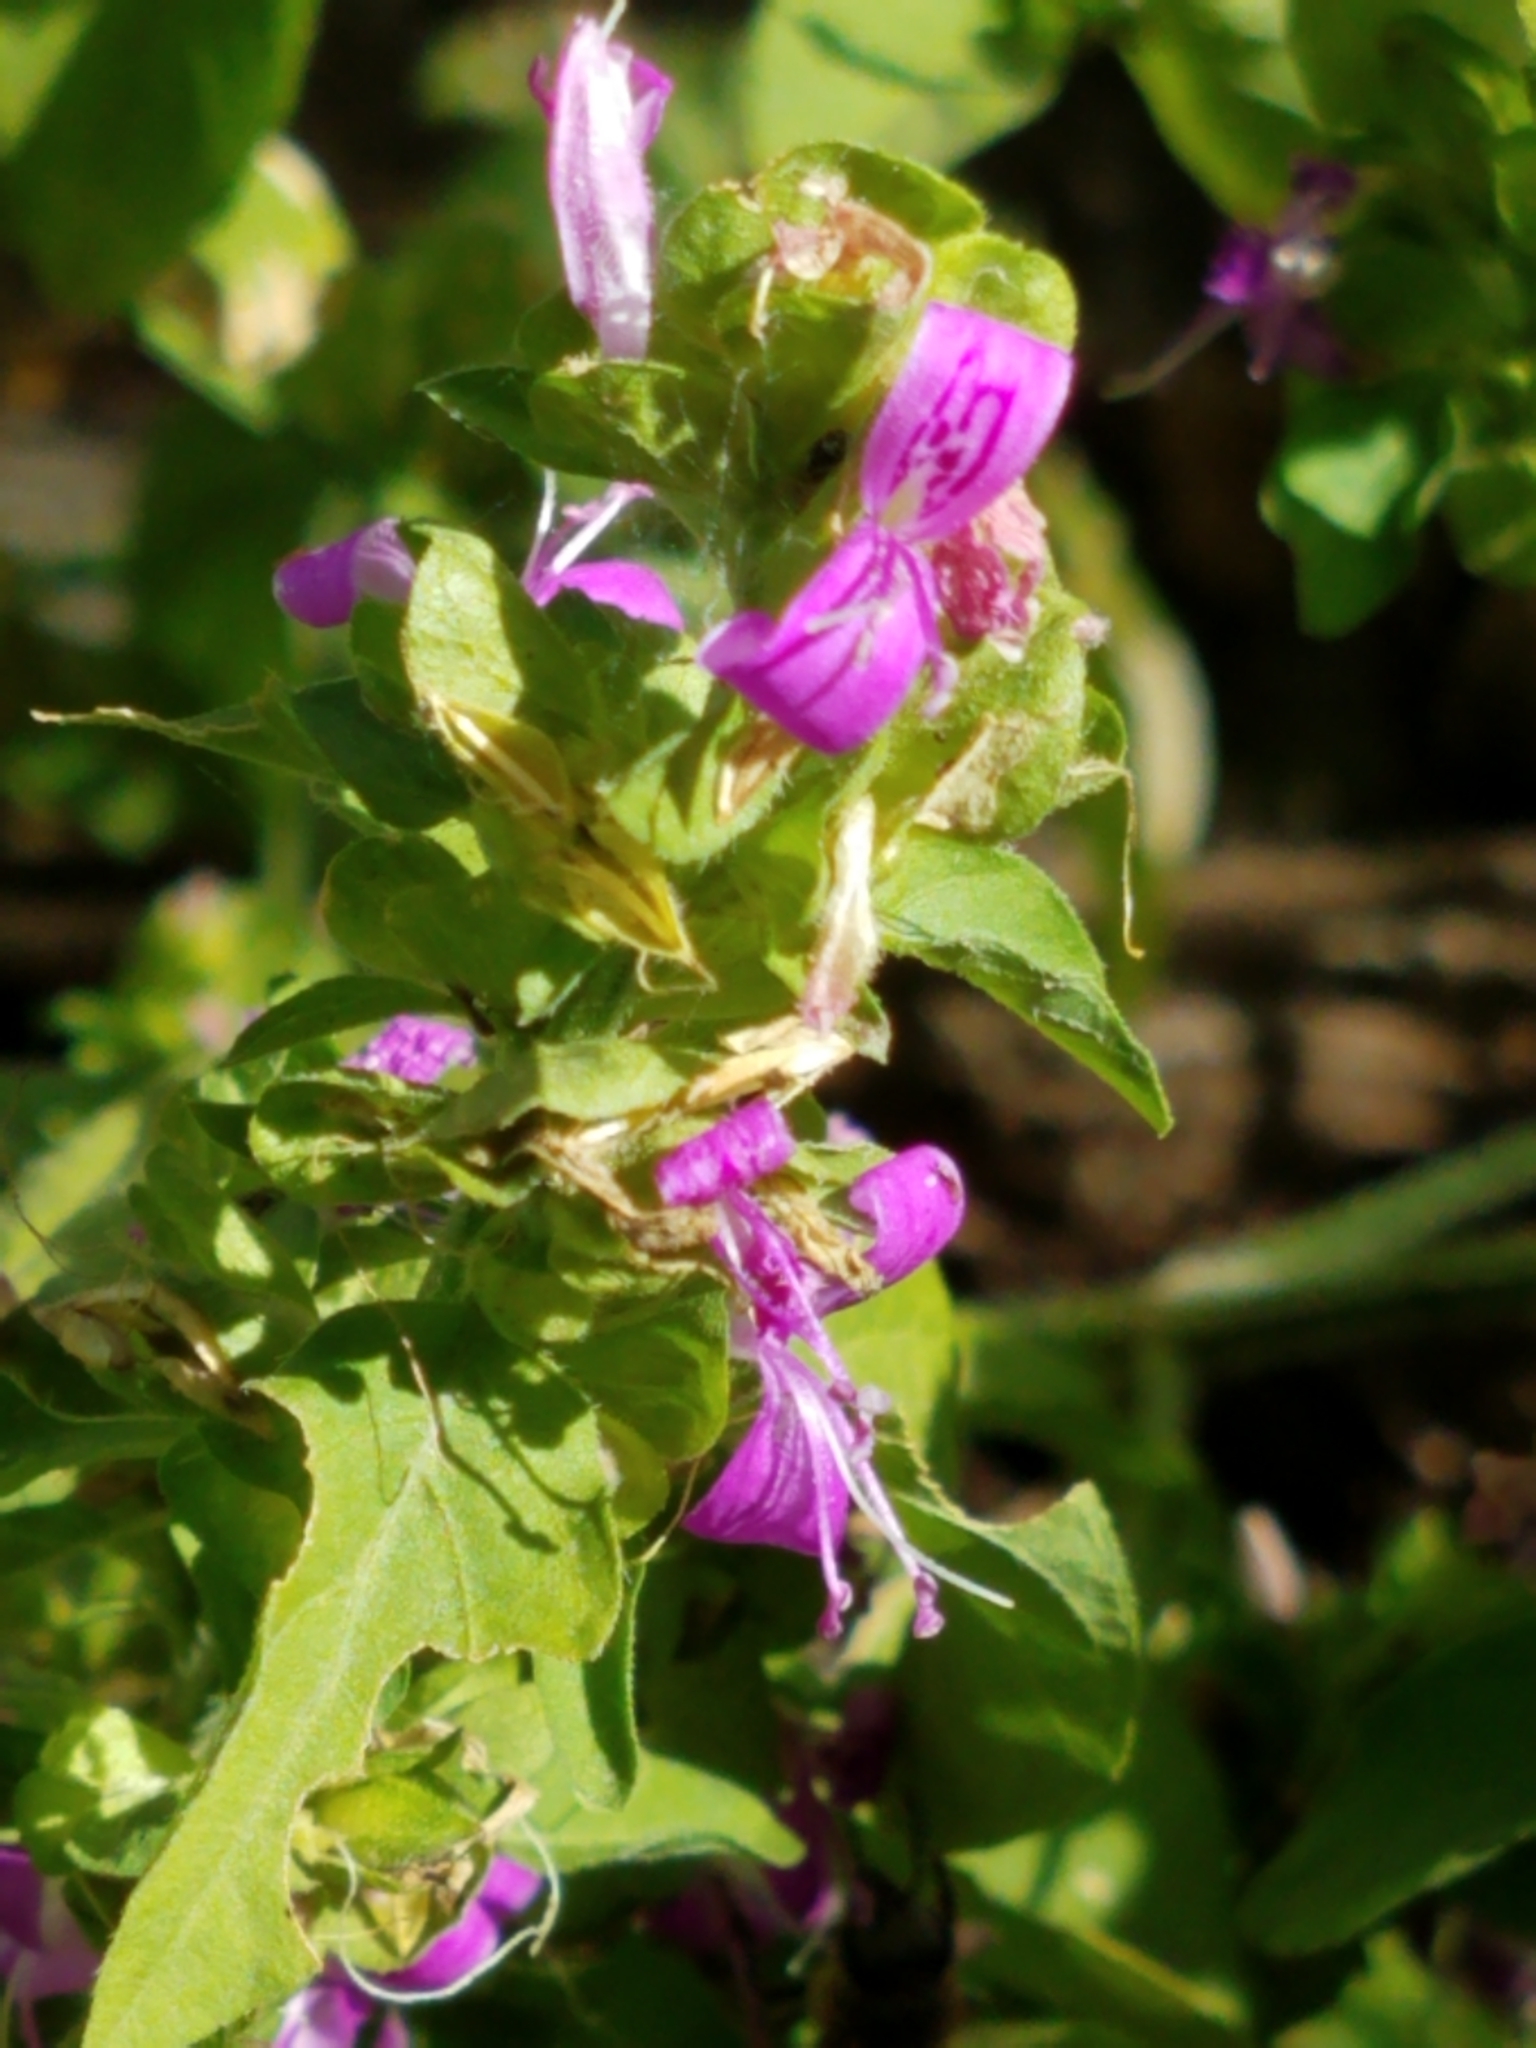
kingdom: Plantae
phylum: Tracheophyta
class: Magnoliopsida
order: Lamiales
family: Acanthaceae
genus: Dicliptera
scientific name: Dicliptera brachiata
